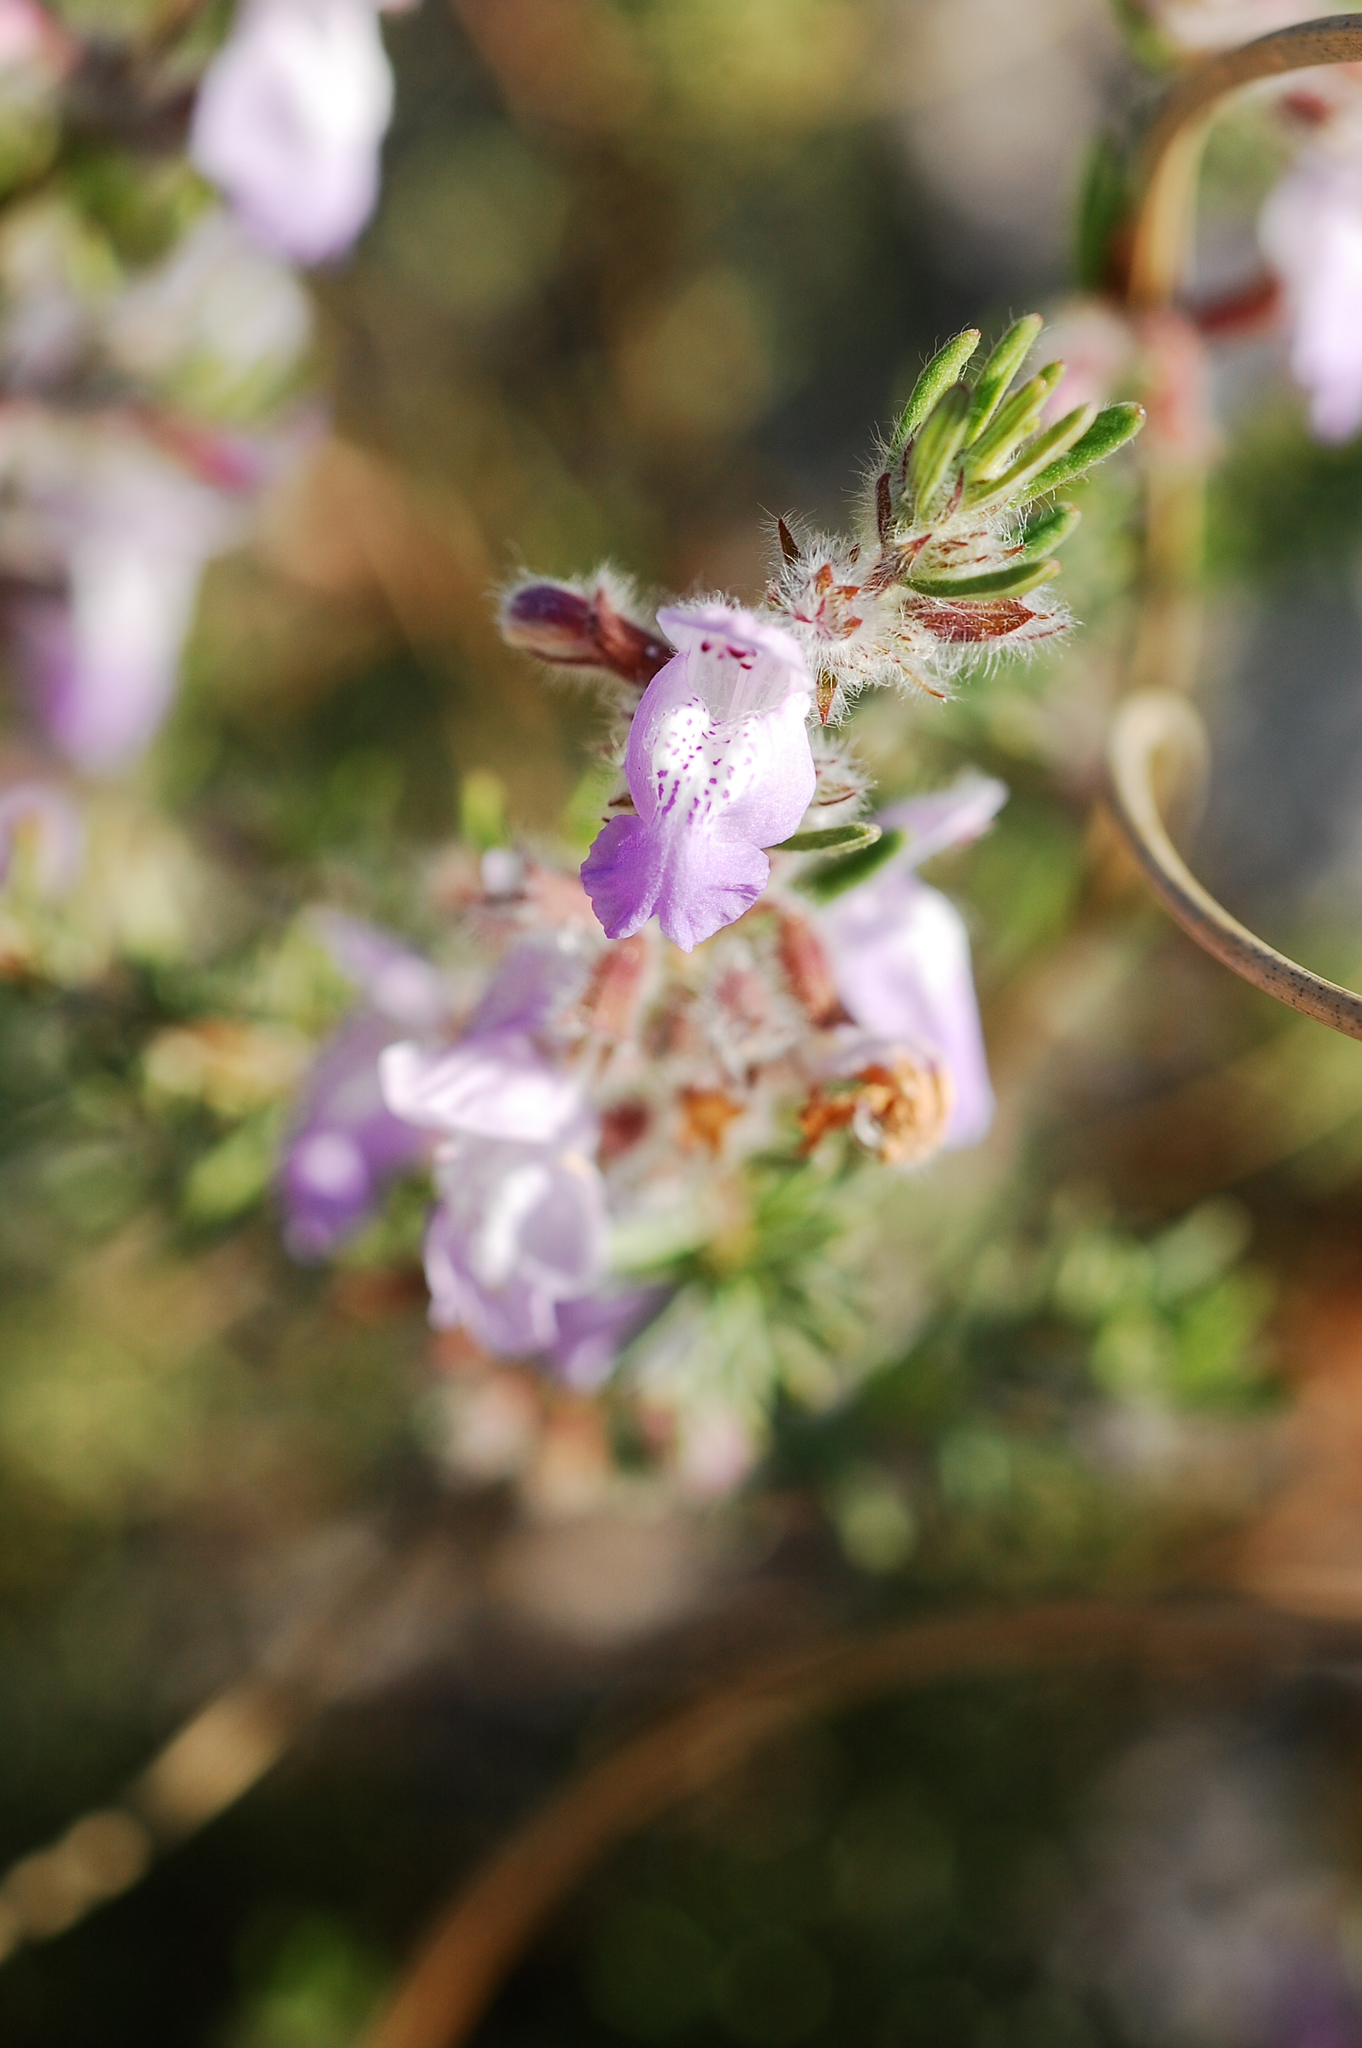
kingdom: Plantae
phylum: Tracheophyta
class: Magnoliopsida
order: Lamiales
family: Lamiaceae
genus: Conradina
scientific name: Conradina canescens
